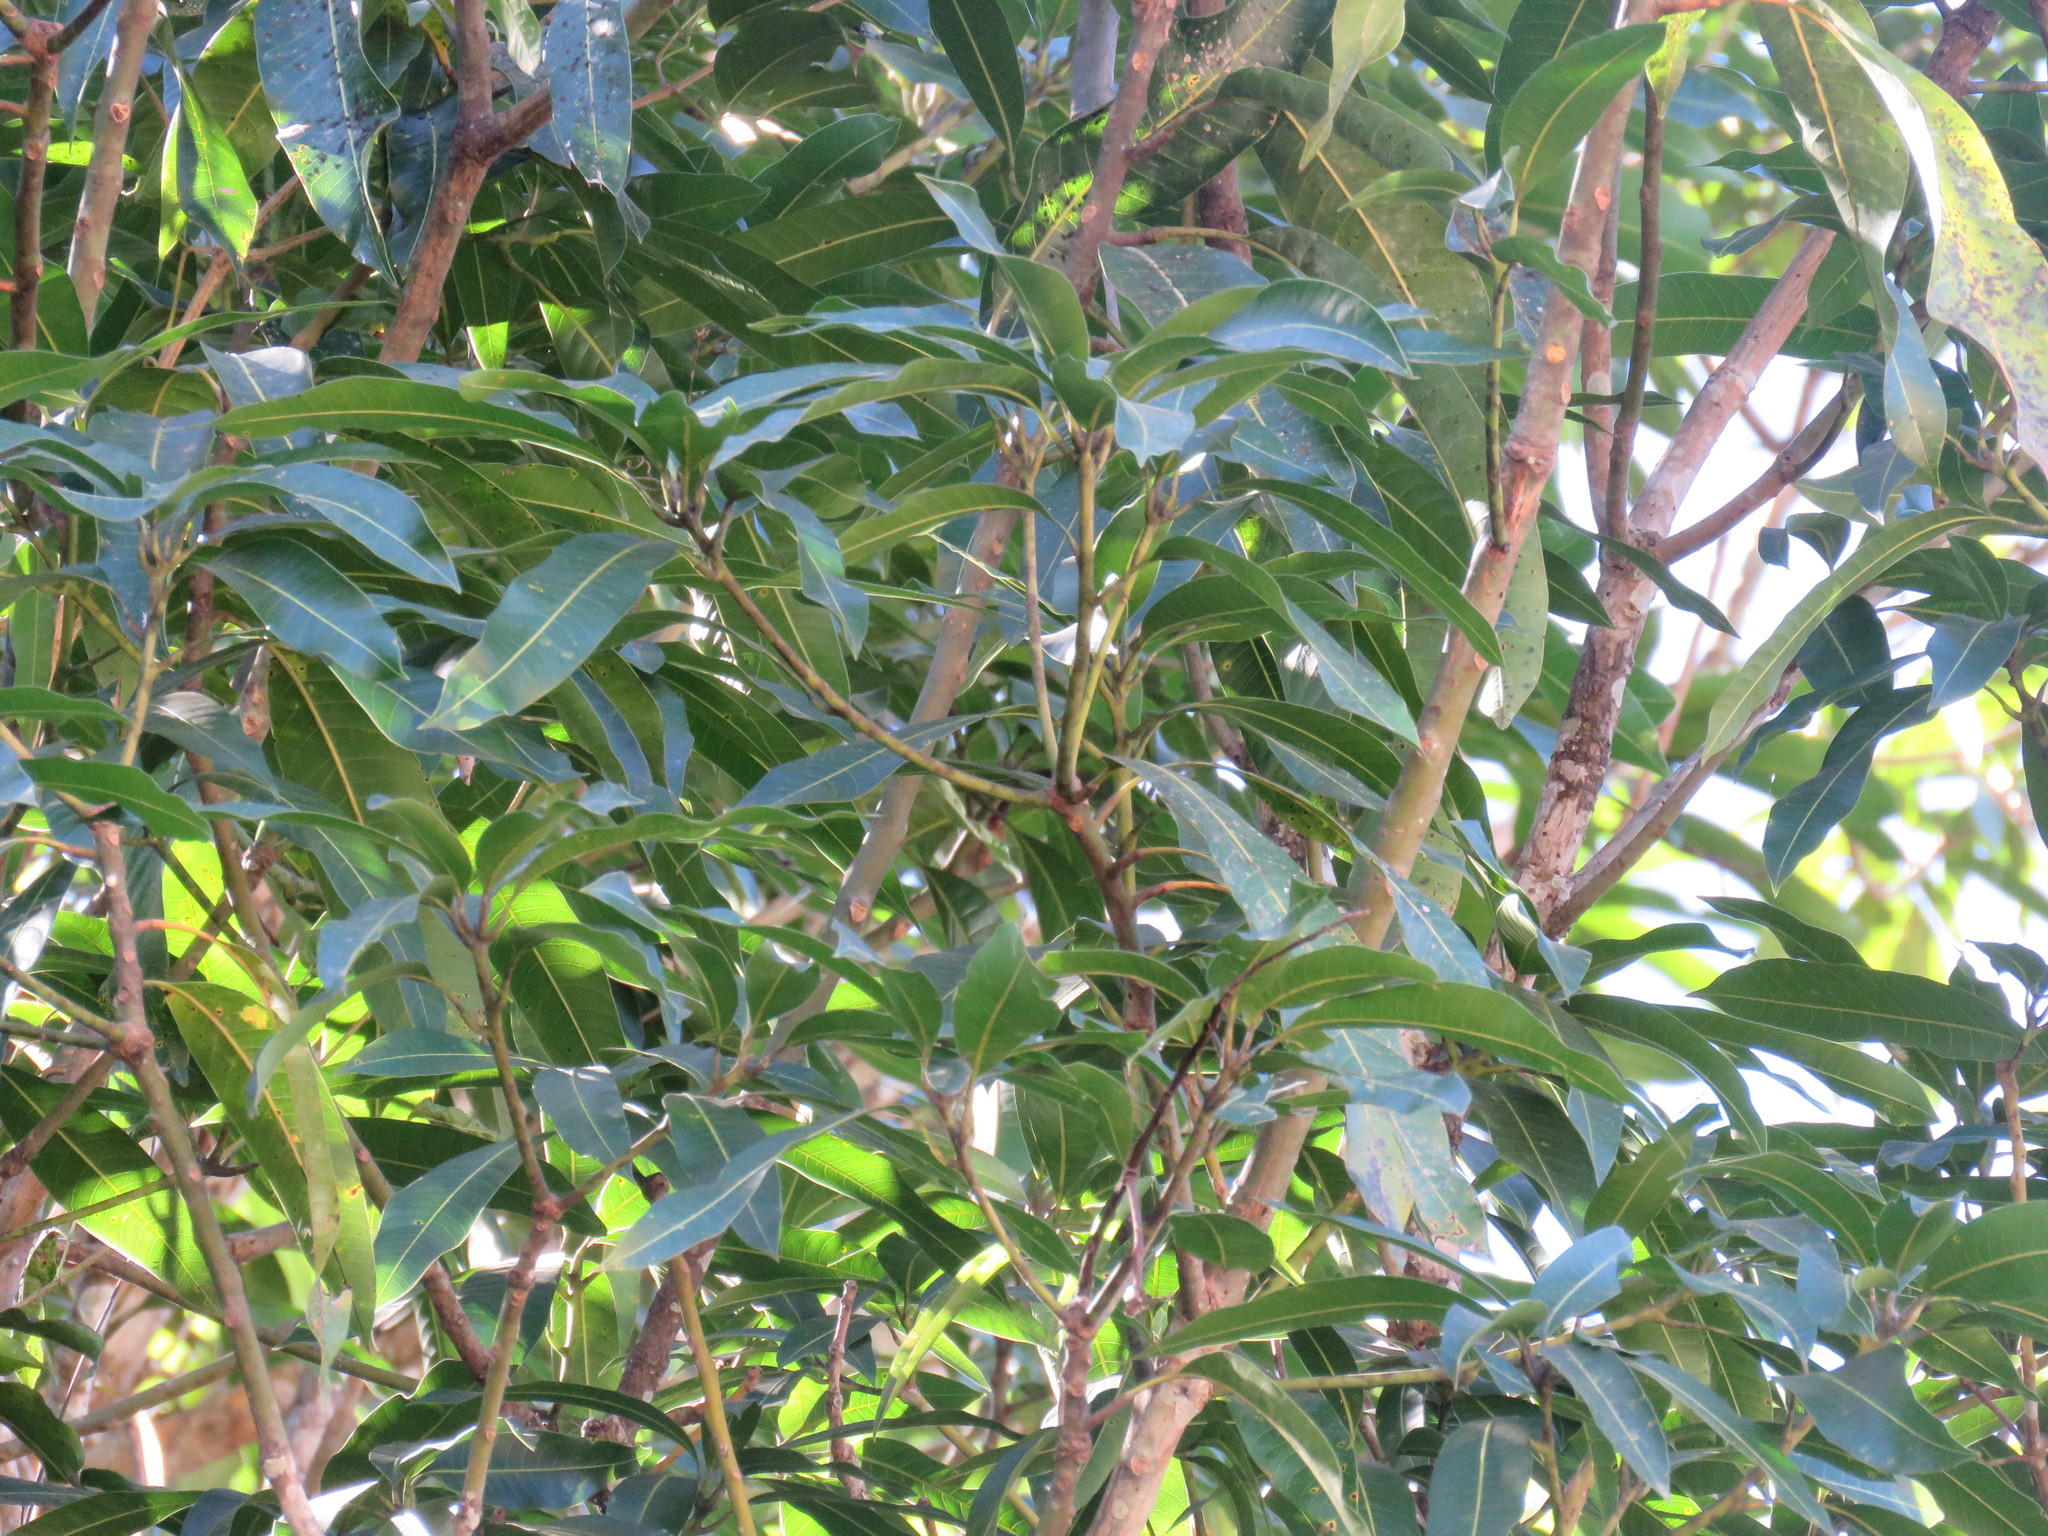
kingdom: Plantae
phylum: Tracheophyta
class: Magnoliopsida
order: Sapindales
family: Anacardiaceae
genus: Mangifera
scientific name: Mangifera indica
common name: Mango
